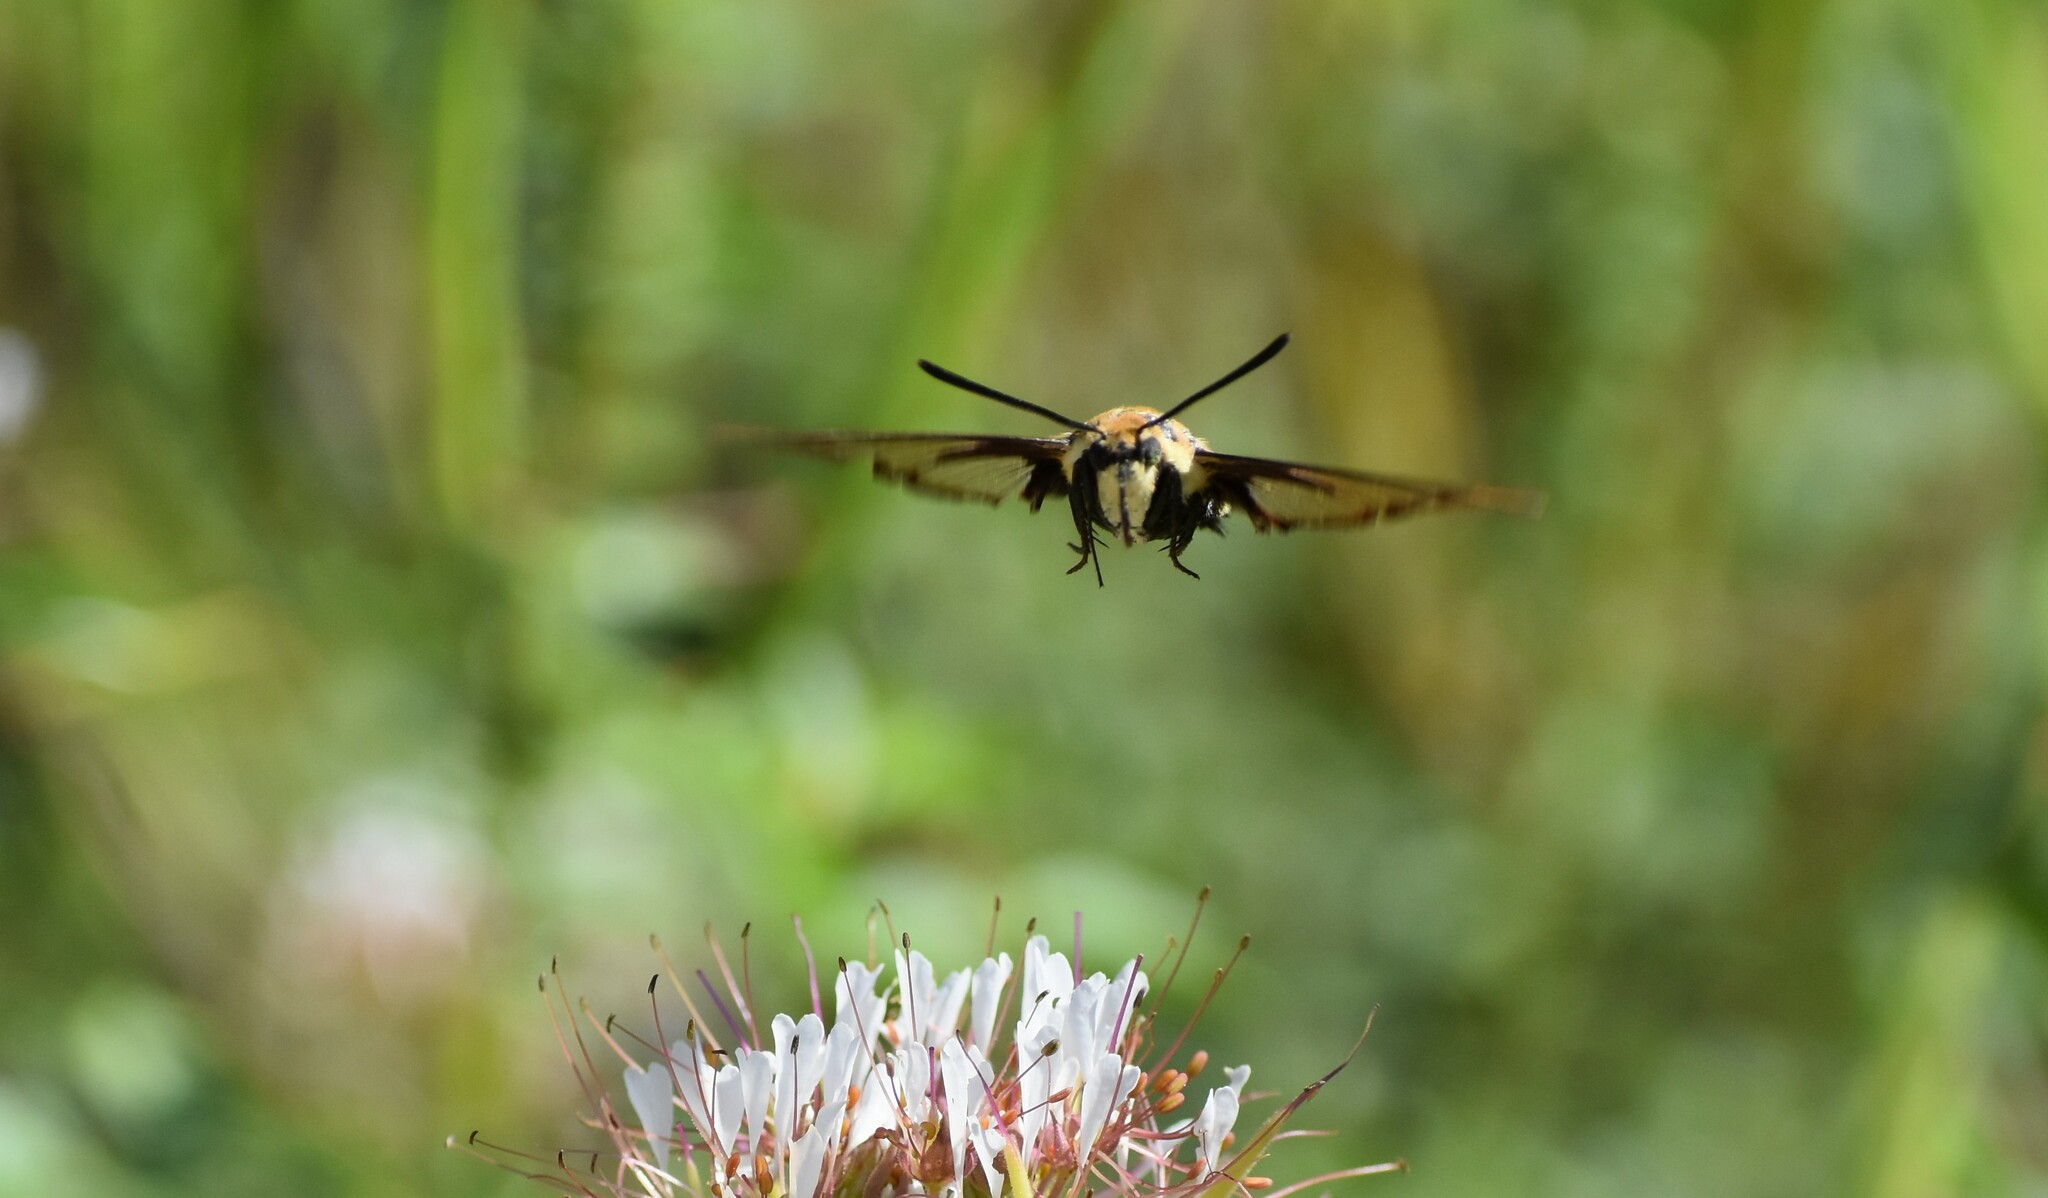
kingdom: Animalia
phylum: Arthropoda
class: Insecta
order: Lepidoptera
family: Sphingidae
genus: Hemaris
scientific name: Hemaris diffinis
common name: Bumblebee moth
